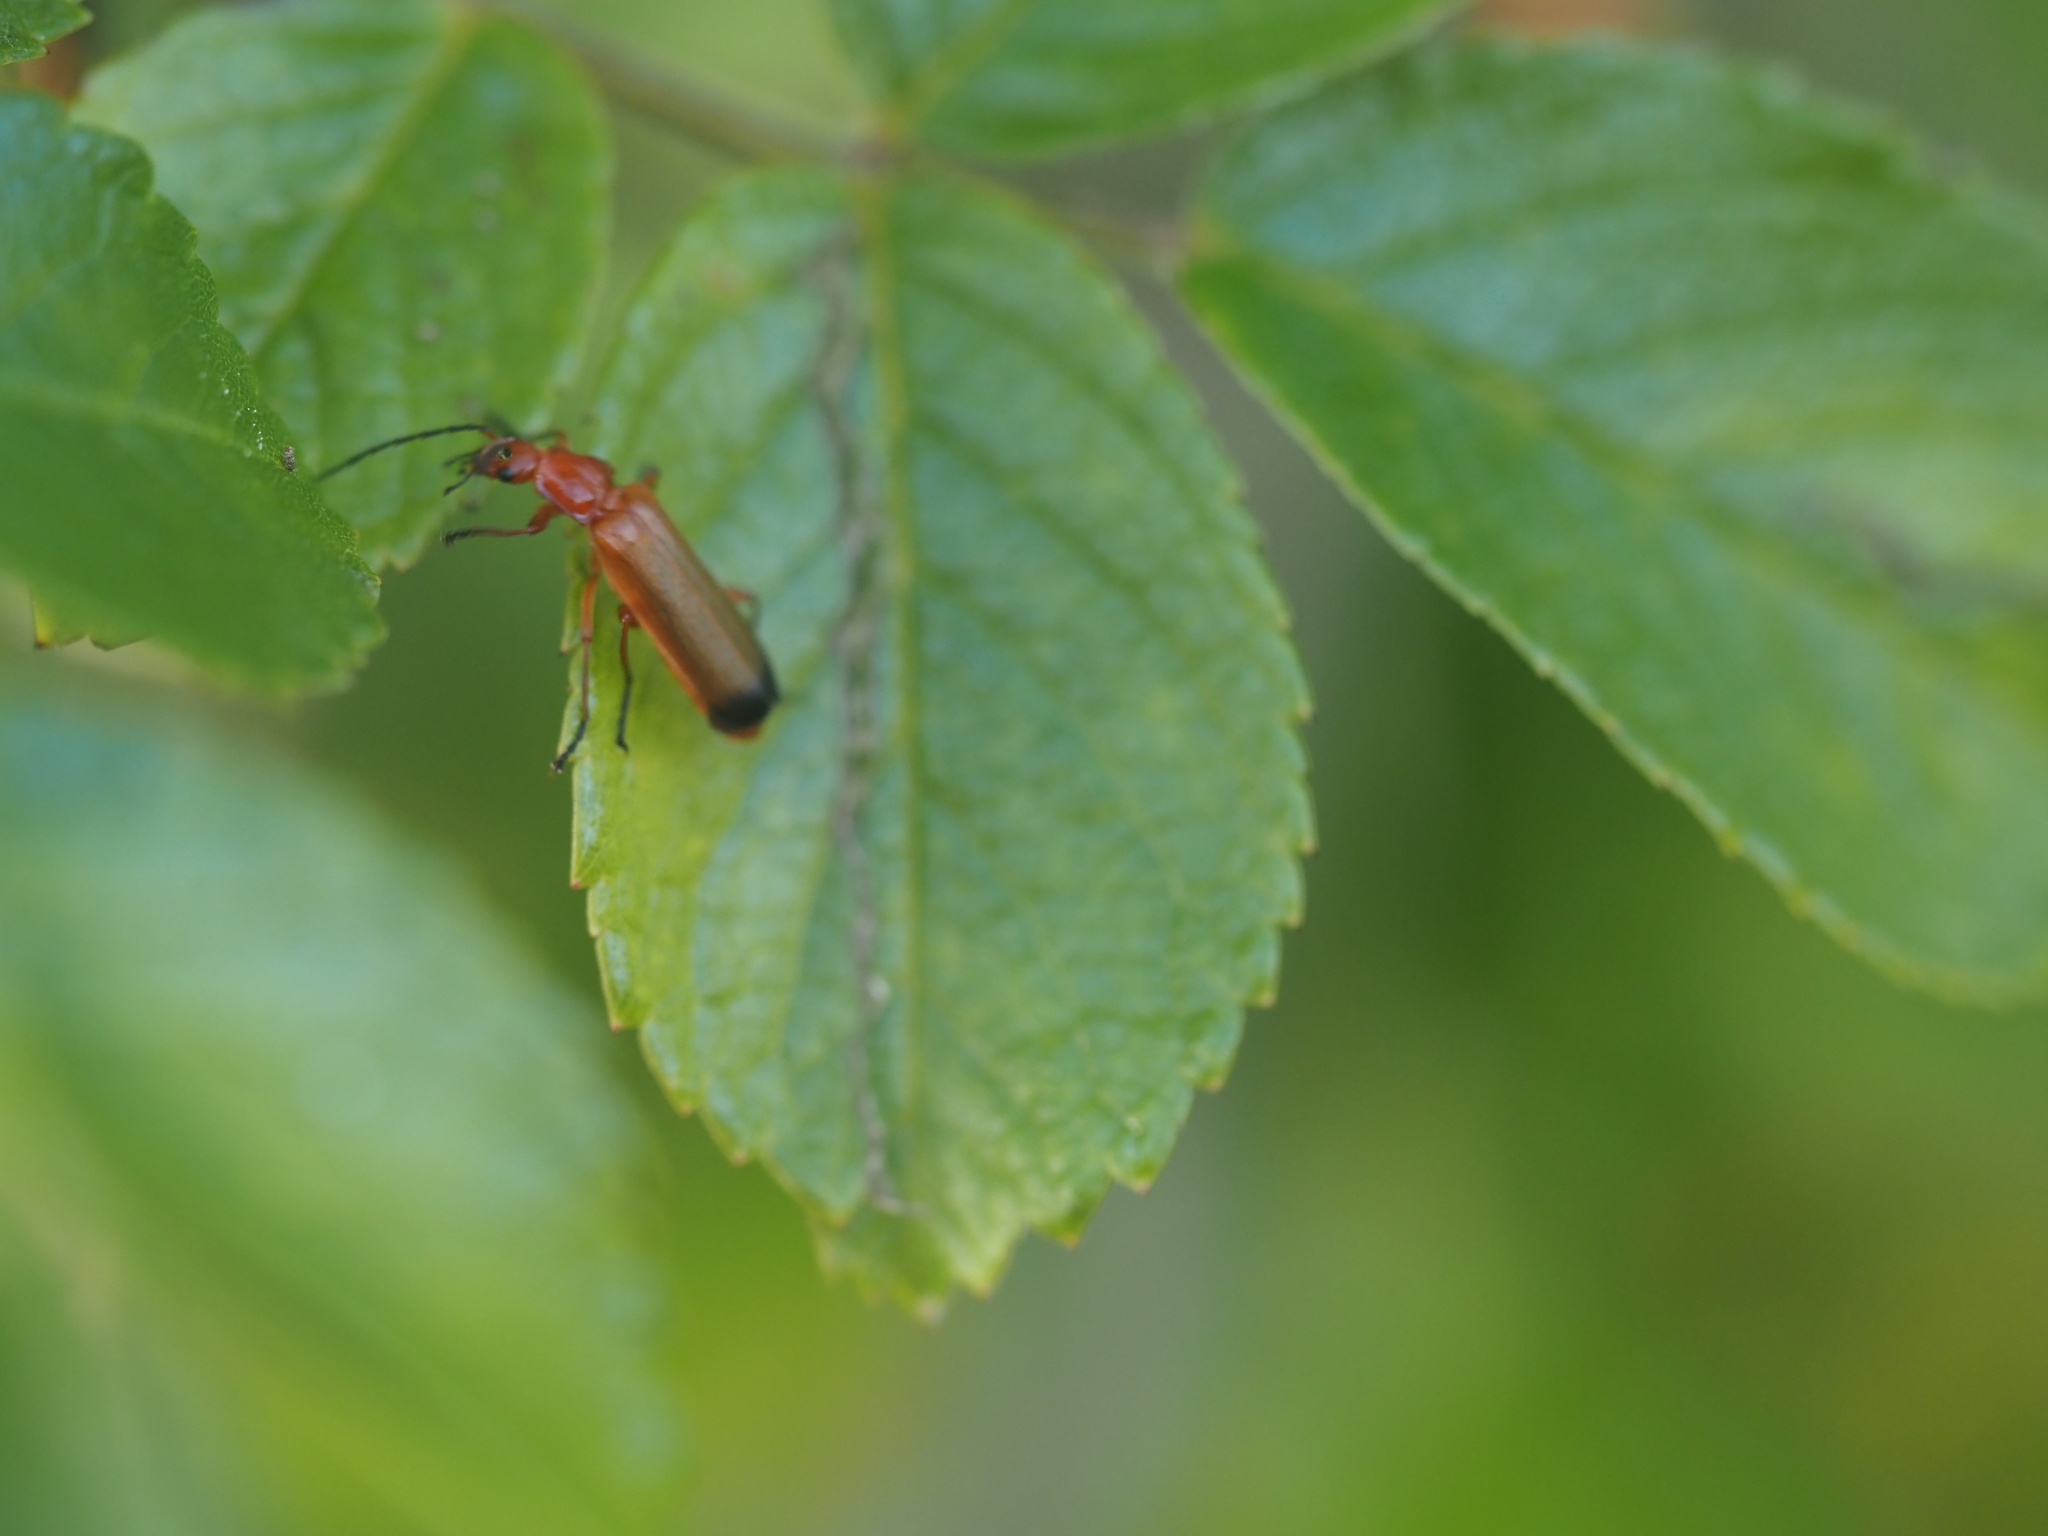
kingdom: Animalia
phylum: Arthropoda
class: Insecta
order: Coleoptera
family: Cantharidae
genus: Rhagonycha
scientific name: Rhagonycha fulva
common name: Common red soldier beetle
